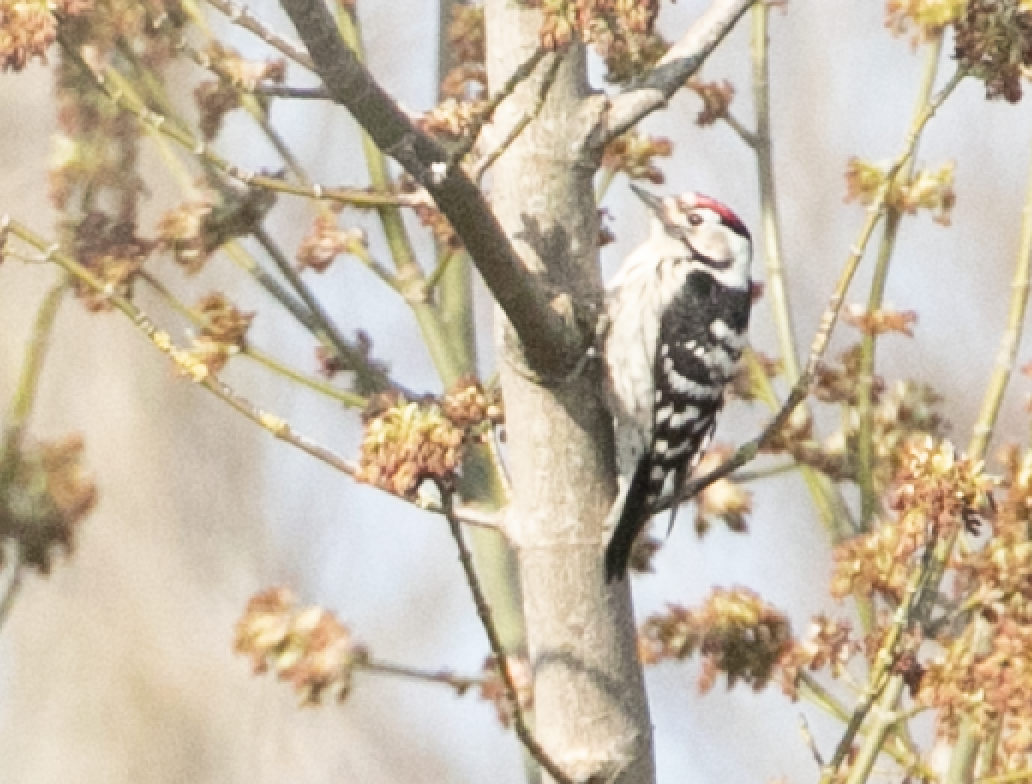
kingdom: Animalia
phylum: Chordata
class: Aves
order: Piciformes
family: Picidae
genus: Dryobates
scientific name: Dryobates minor
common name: Lesser spotted woodpecker
